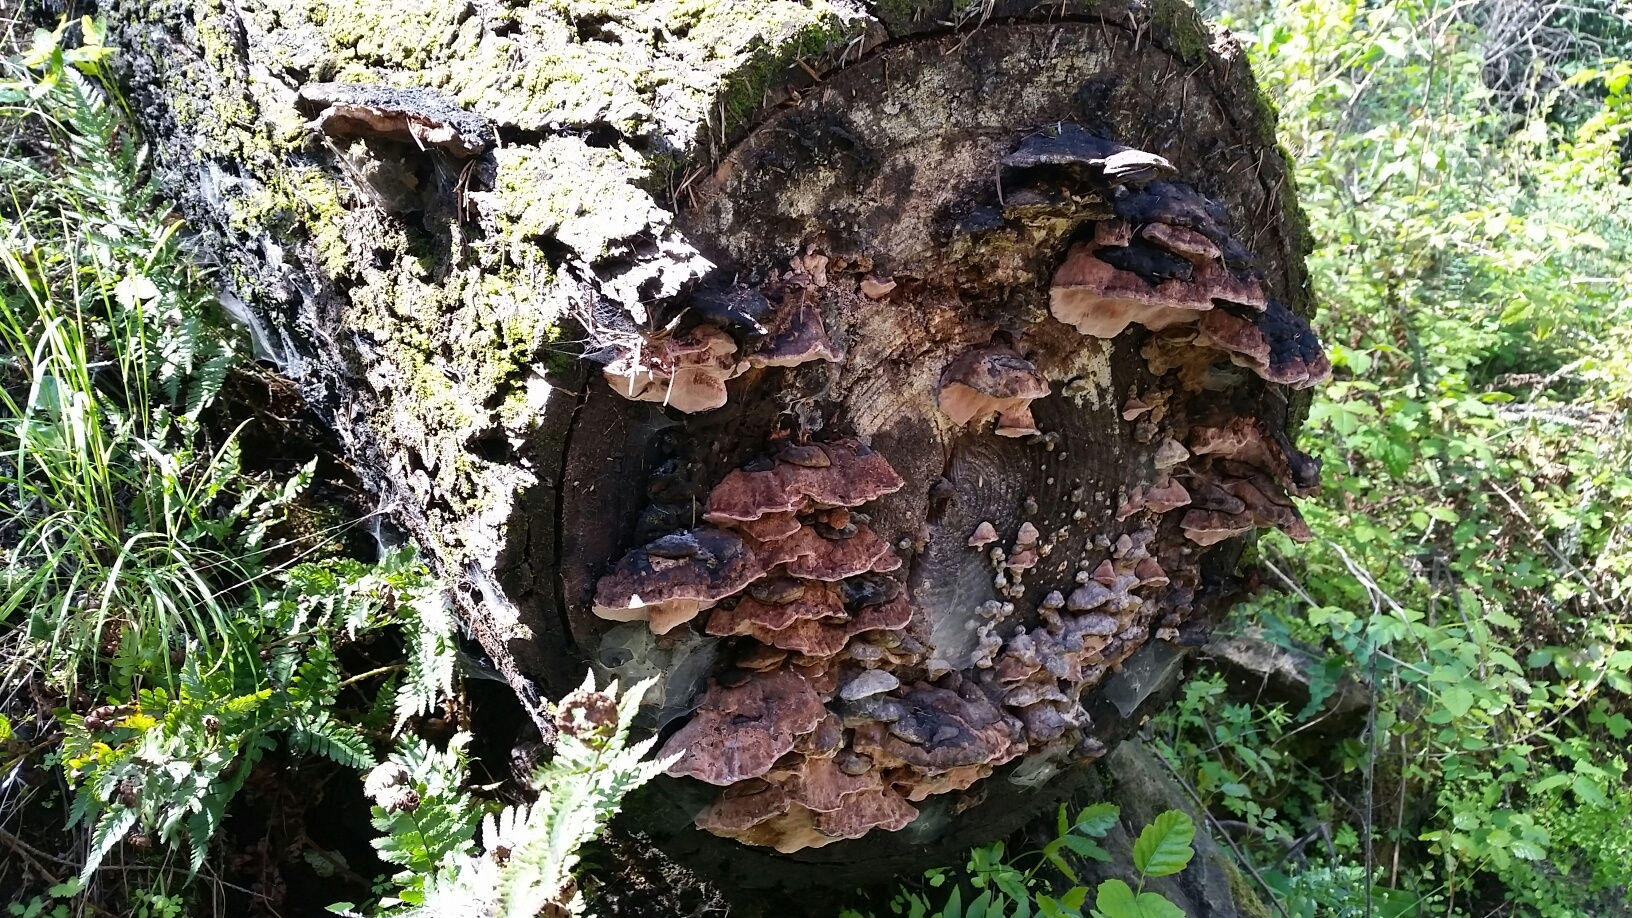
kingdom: Fungi
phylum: Basidiomycota
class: Agaricomycetes
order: Polyporales
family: Fomitopsidaceae
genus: Rhodofomes
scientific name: Rhodofomes cajanderi
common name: Rosy conk
